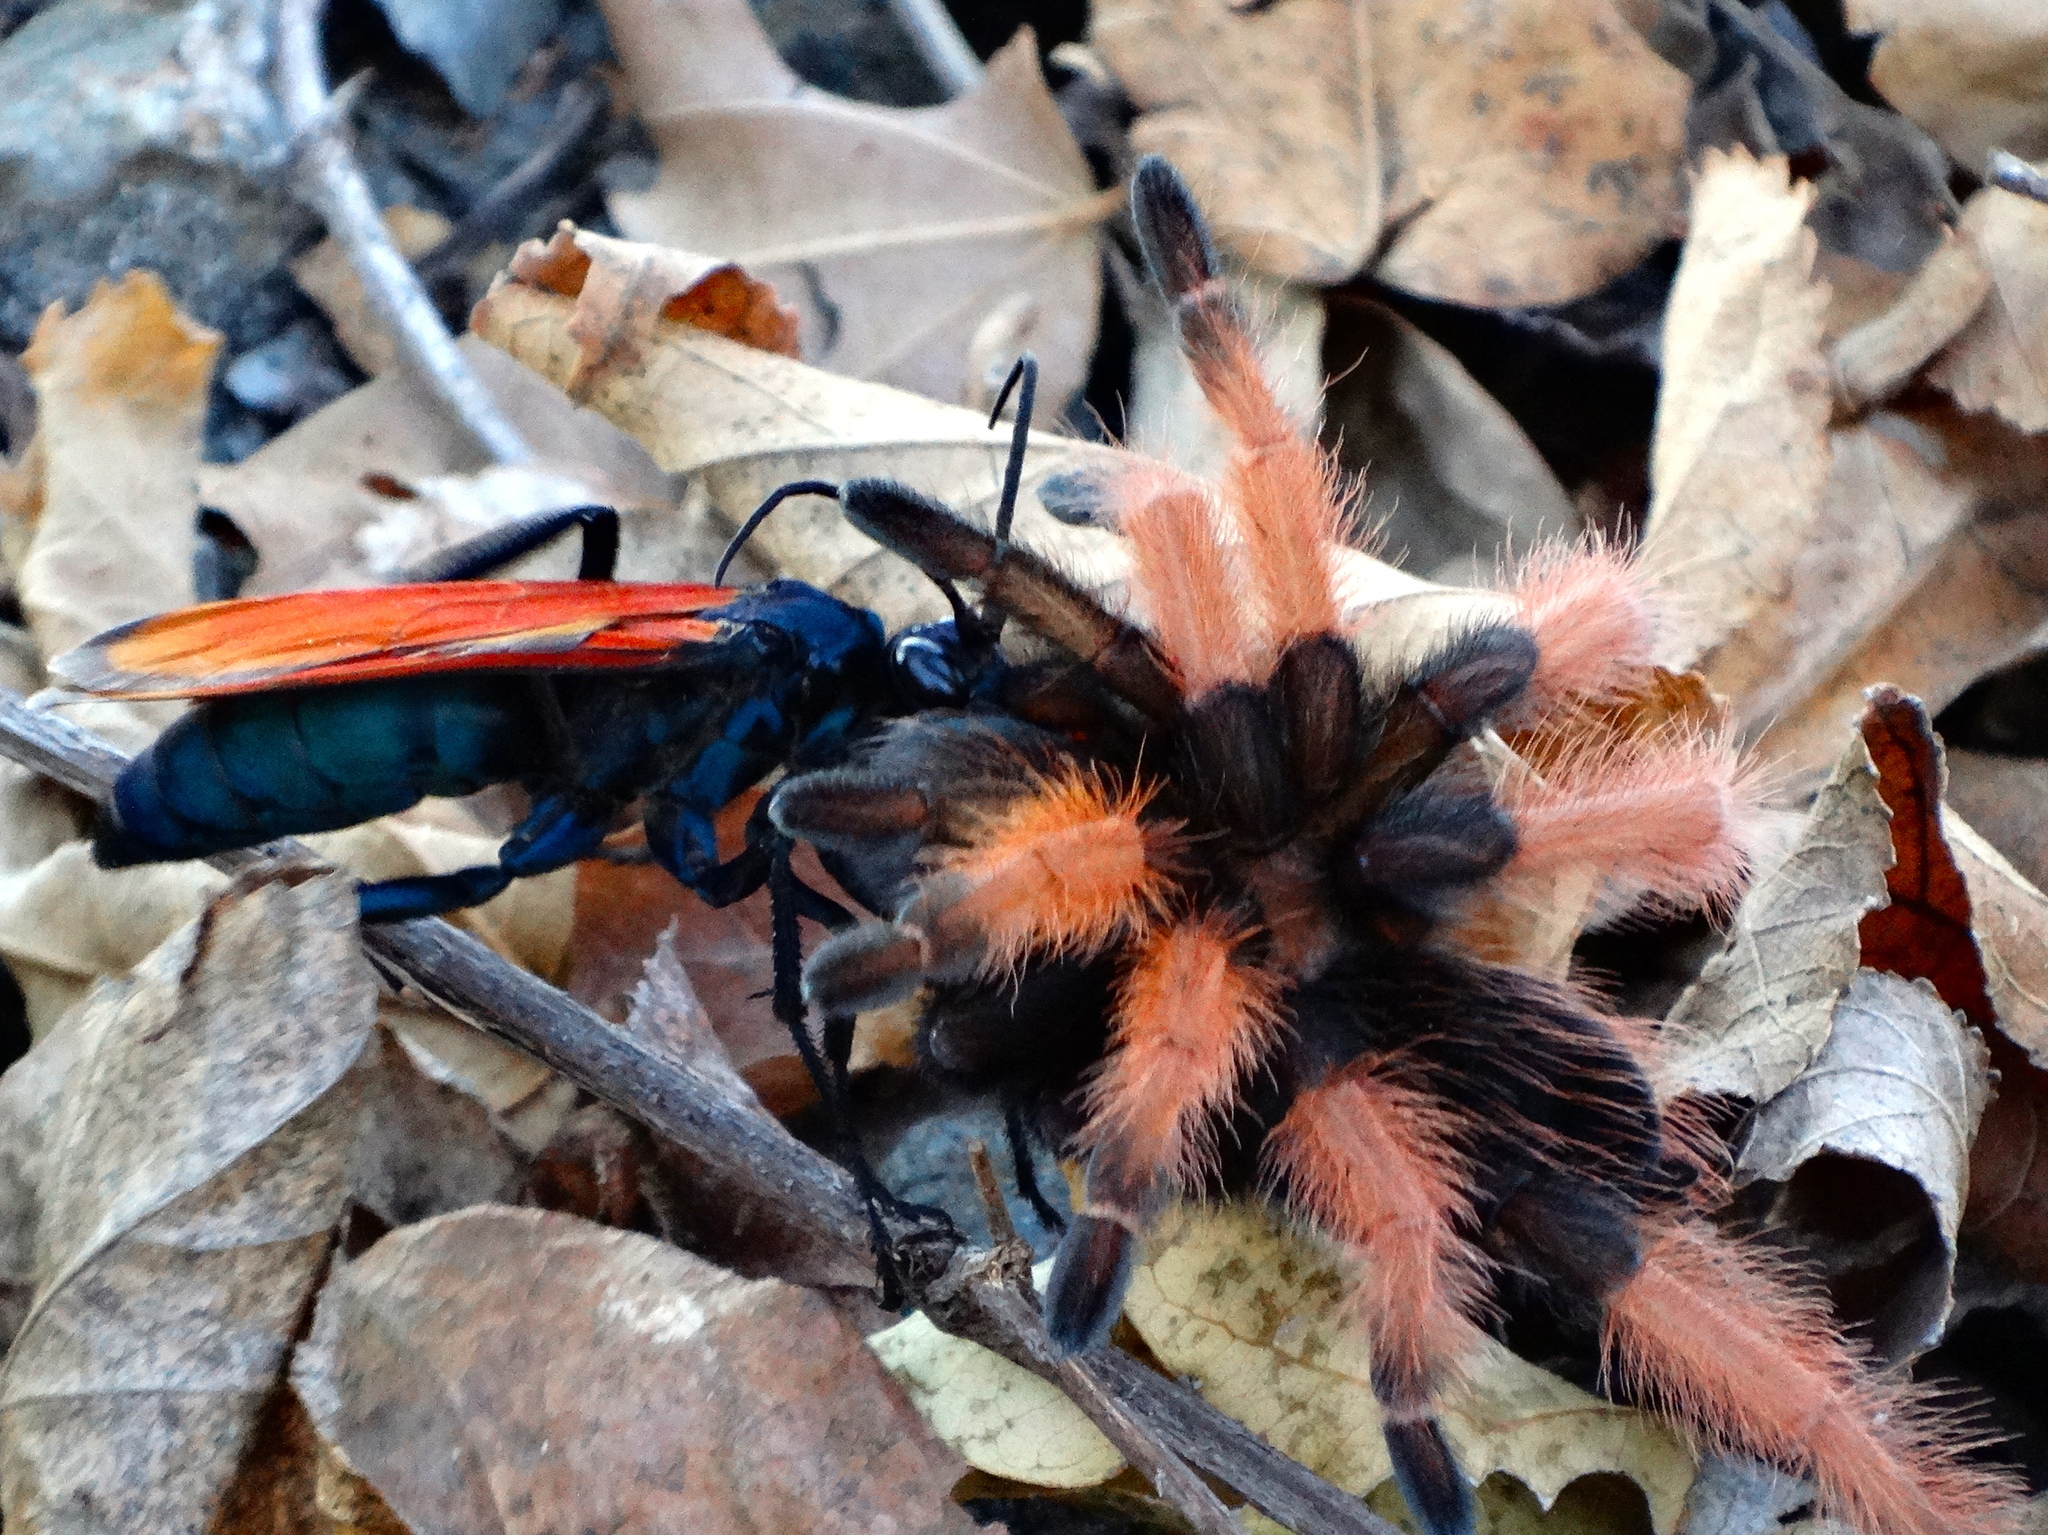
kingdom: Animalia
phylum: Arthropoda
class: Insecta
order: Hymenoptera
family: Pompilidae
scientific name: Pompilidae
